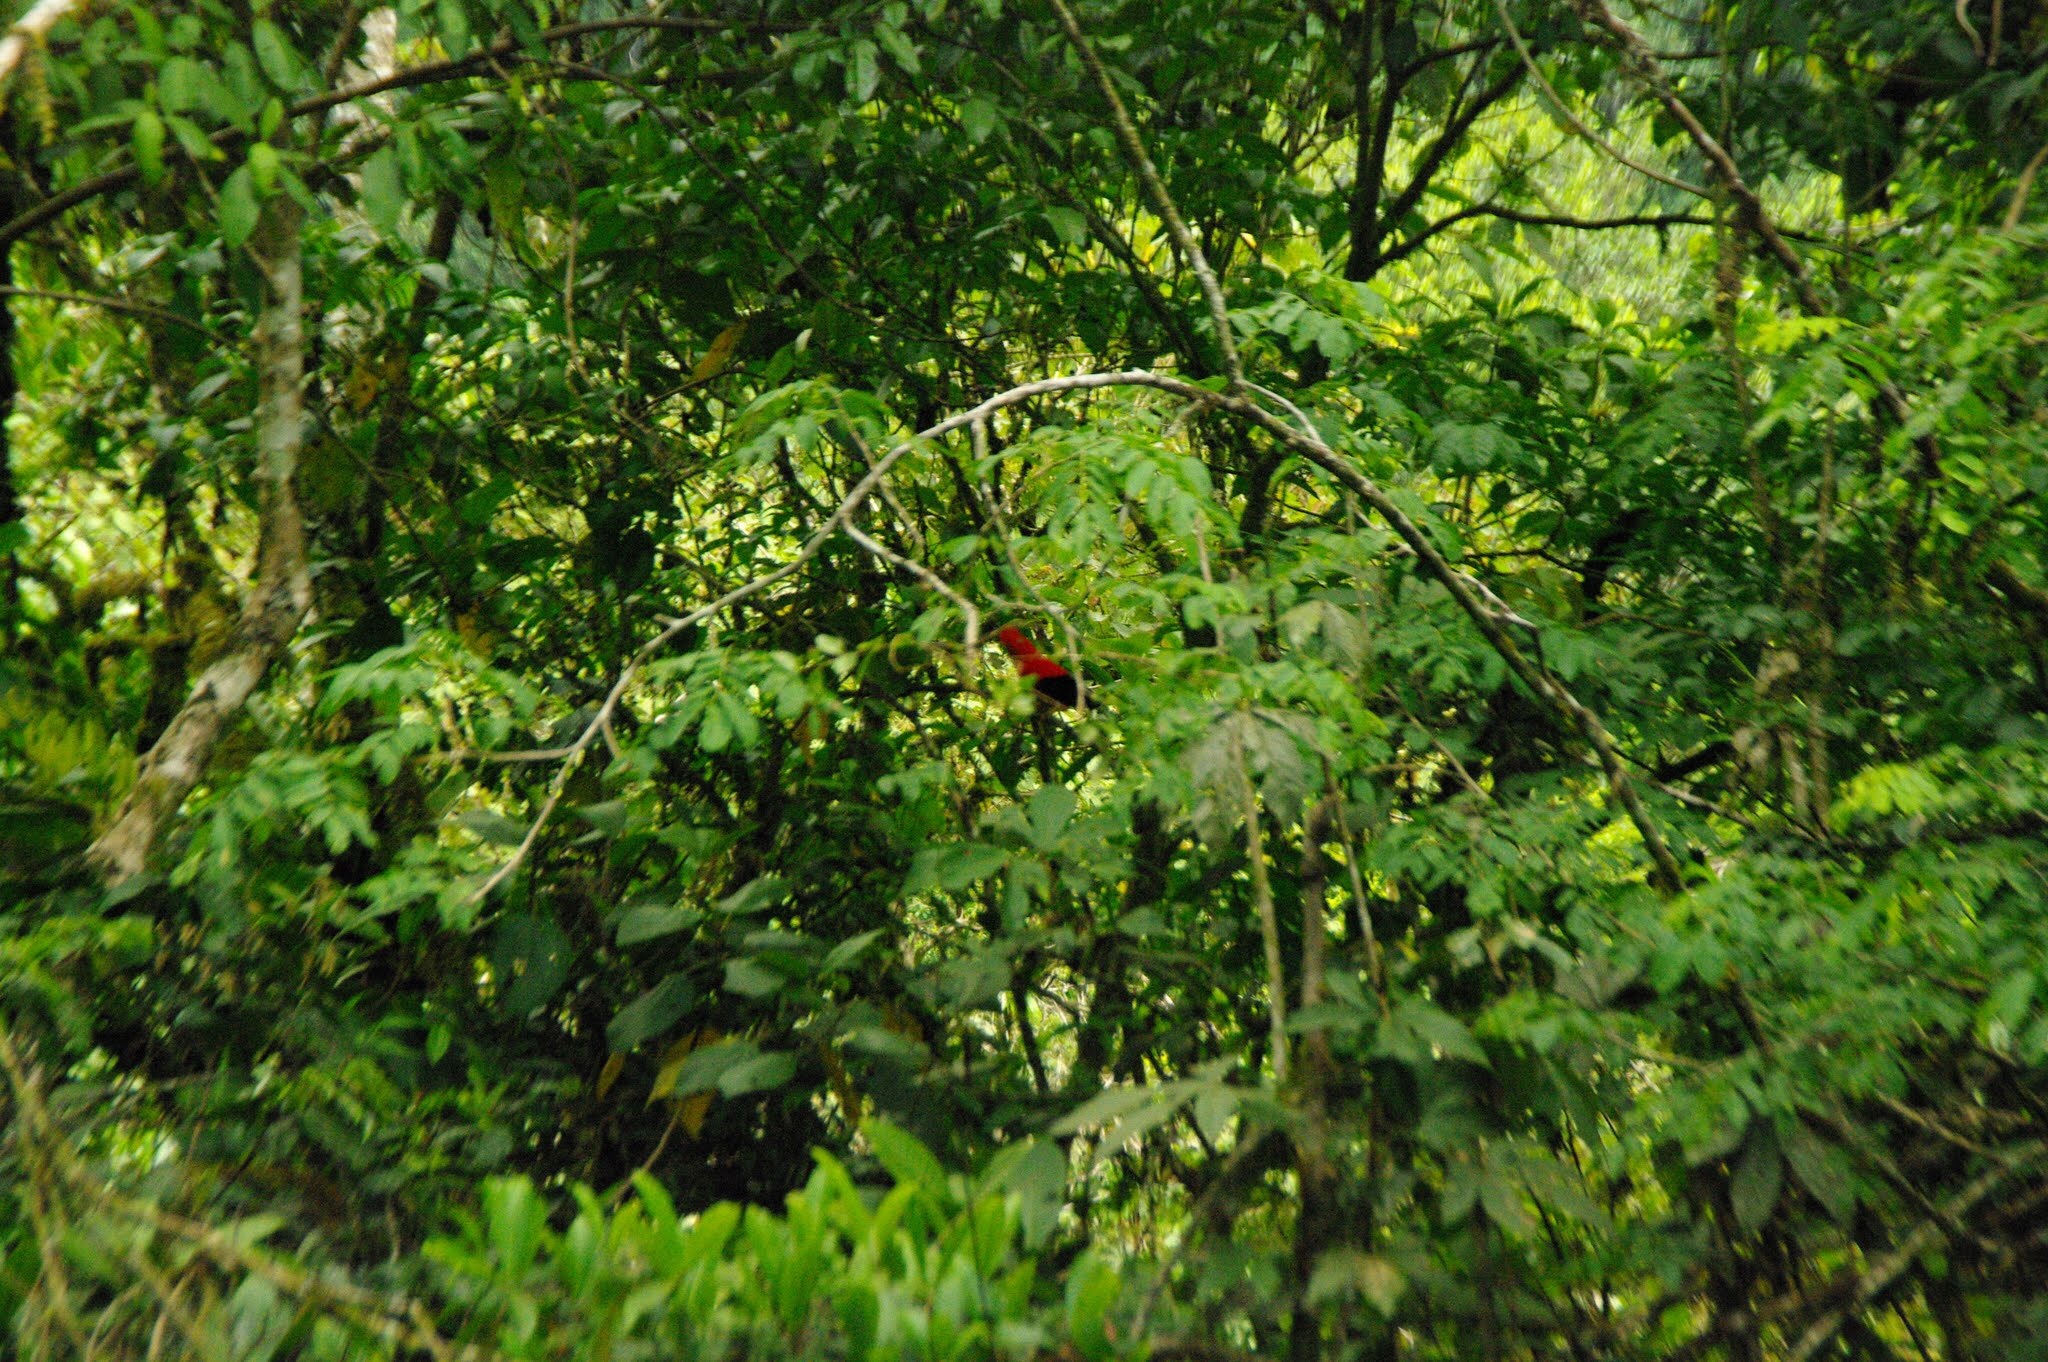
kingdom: Animalia
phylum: Chordata
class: Aves
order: Passeriformes
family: Cotingidae
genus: Rupicola
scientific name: Rupicola peruvianus
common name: Andean cock-of-the-rock
